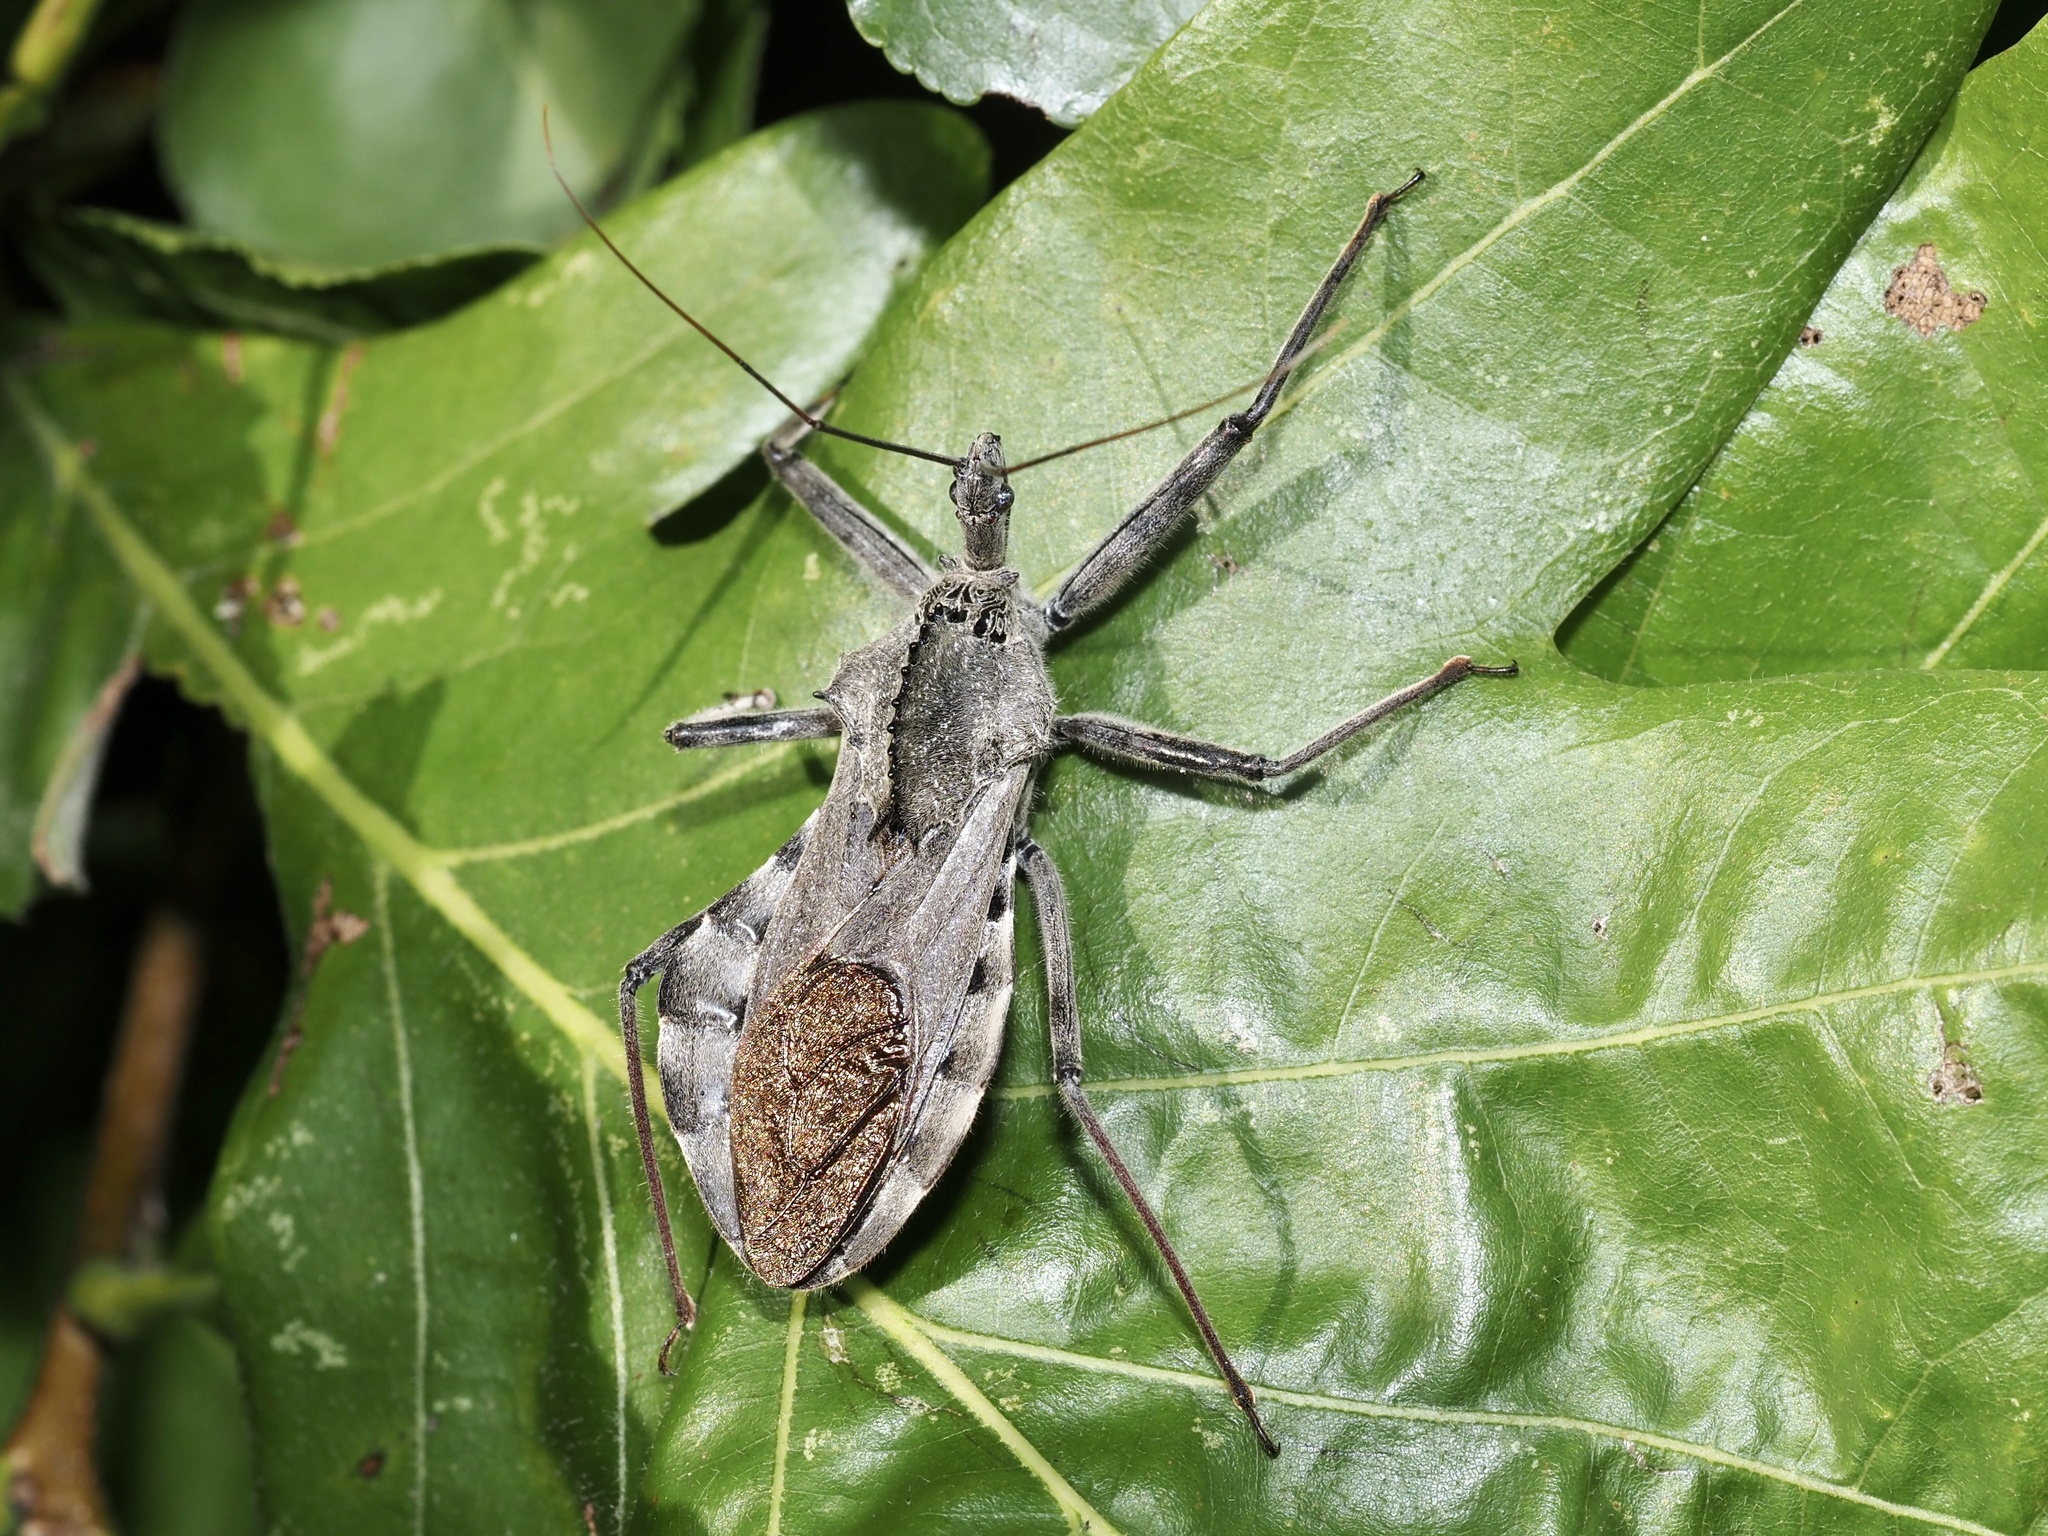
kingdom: Animalia
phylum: Arthropoda
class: Insecta
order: Hemiptera
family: Reduviidae
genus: Arilus
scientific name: Arilus cristatus
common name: North american wheel bug
